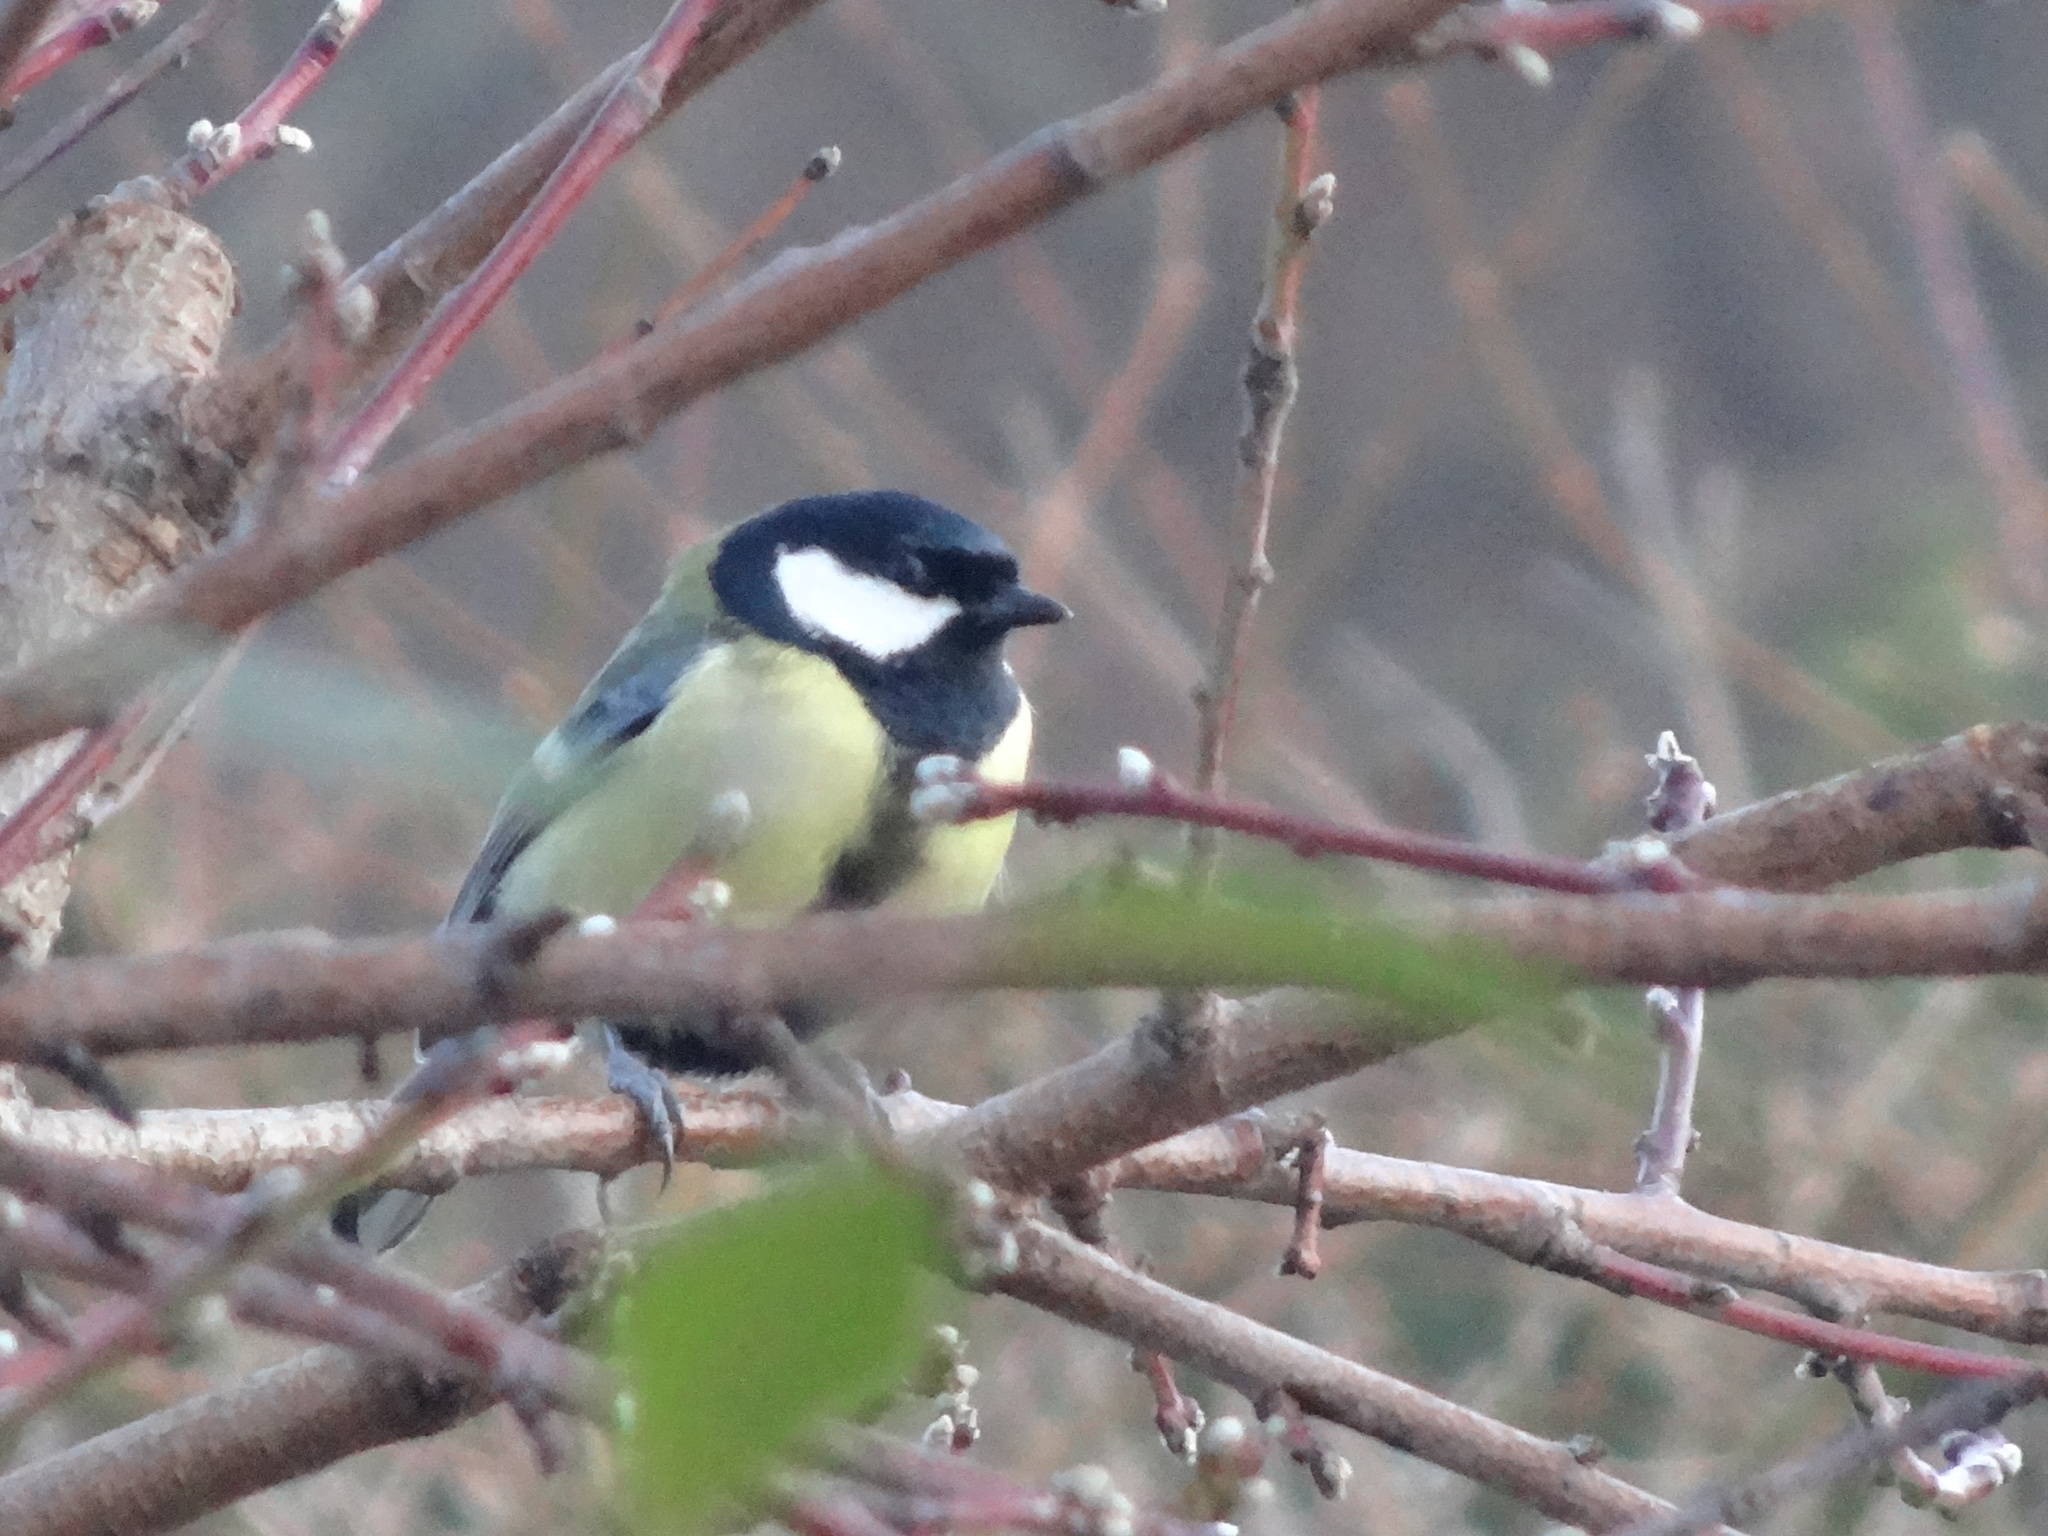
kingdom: Animalia
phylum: Chordata
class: Aves
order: Passeriformes
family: Paridae
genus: Parus
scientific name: Parus major
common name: Great tit
